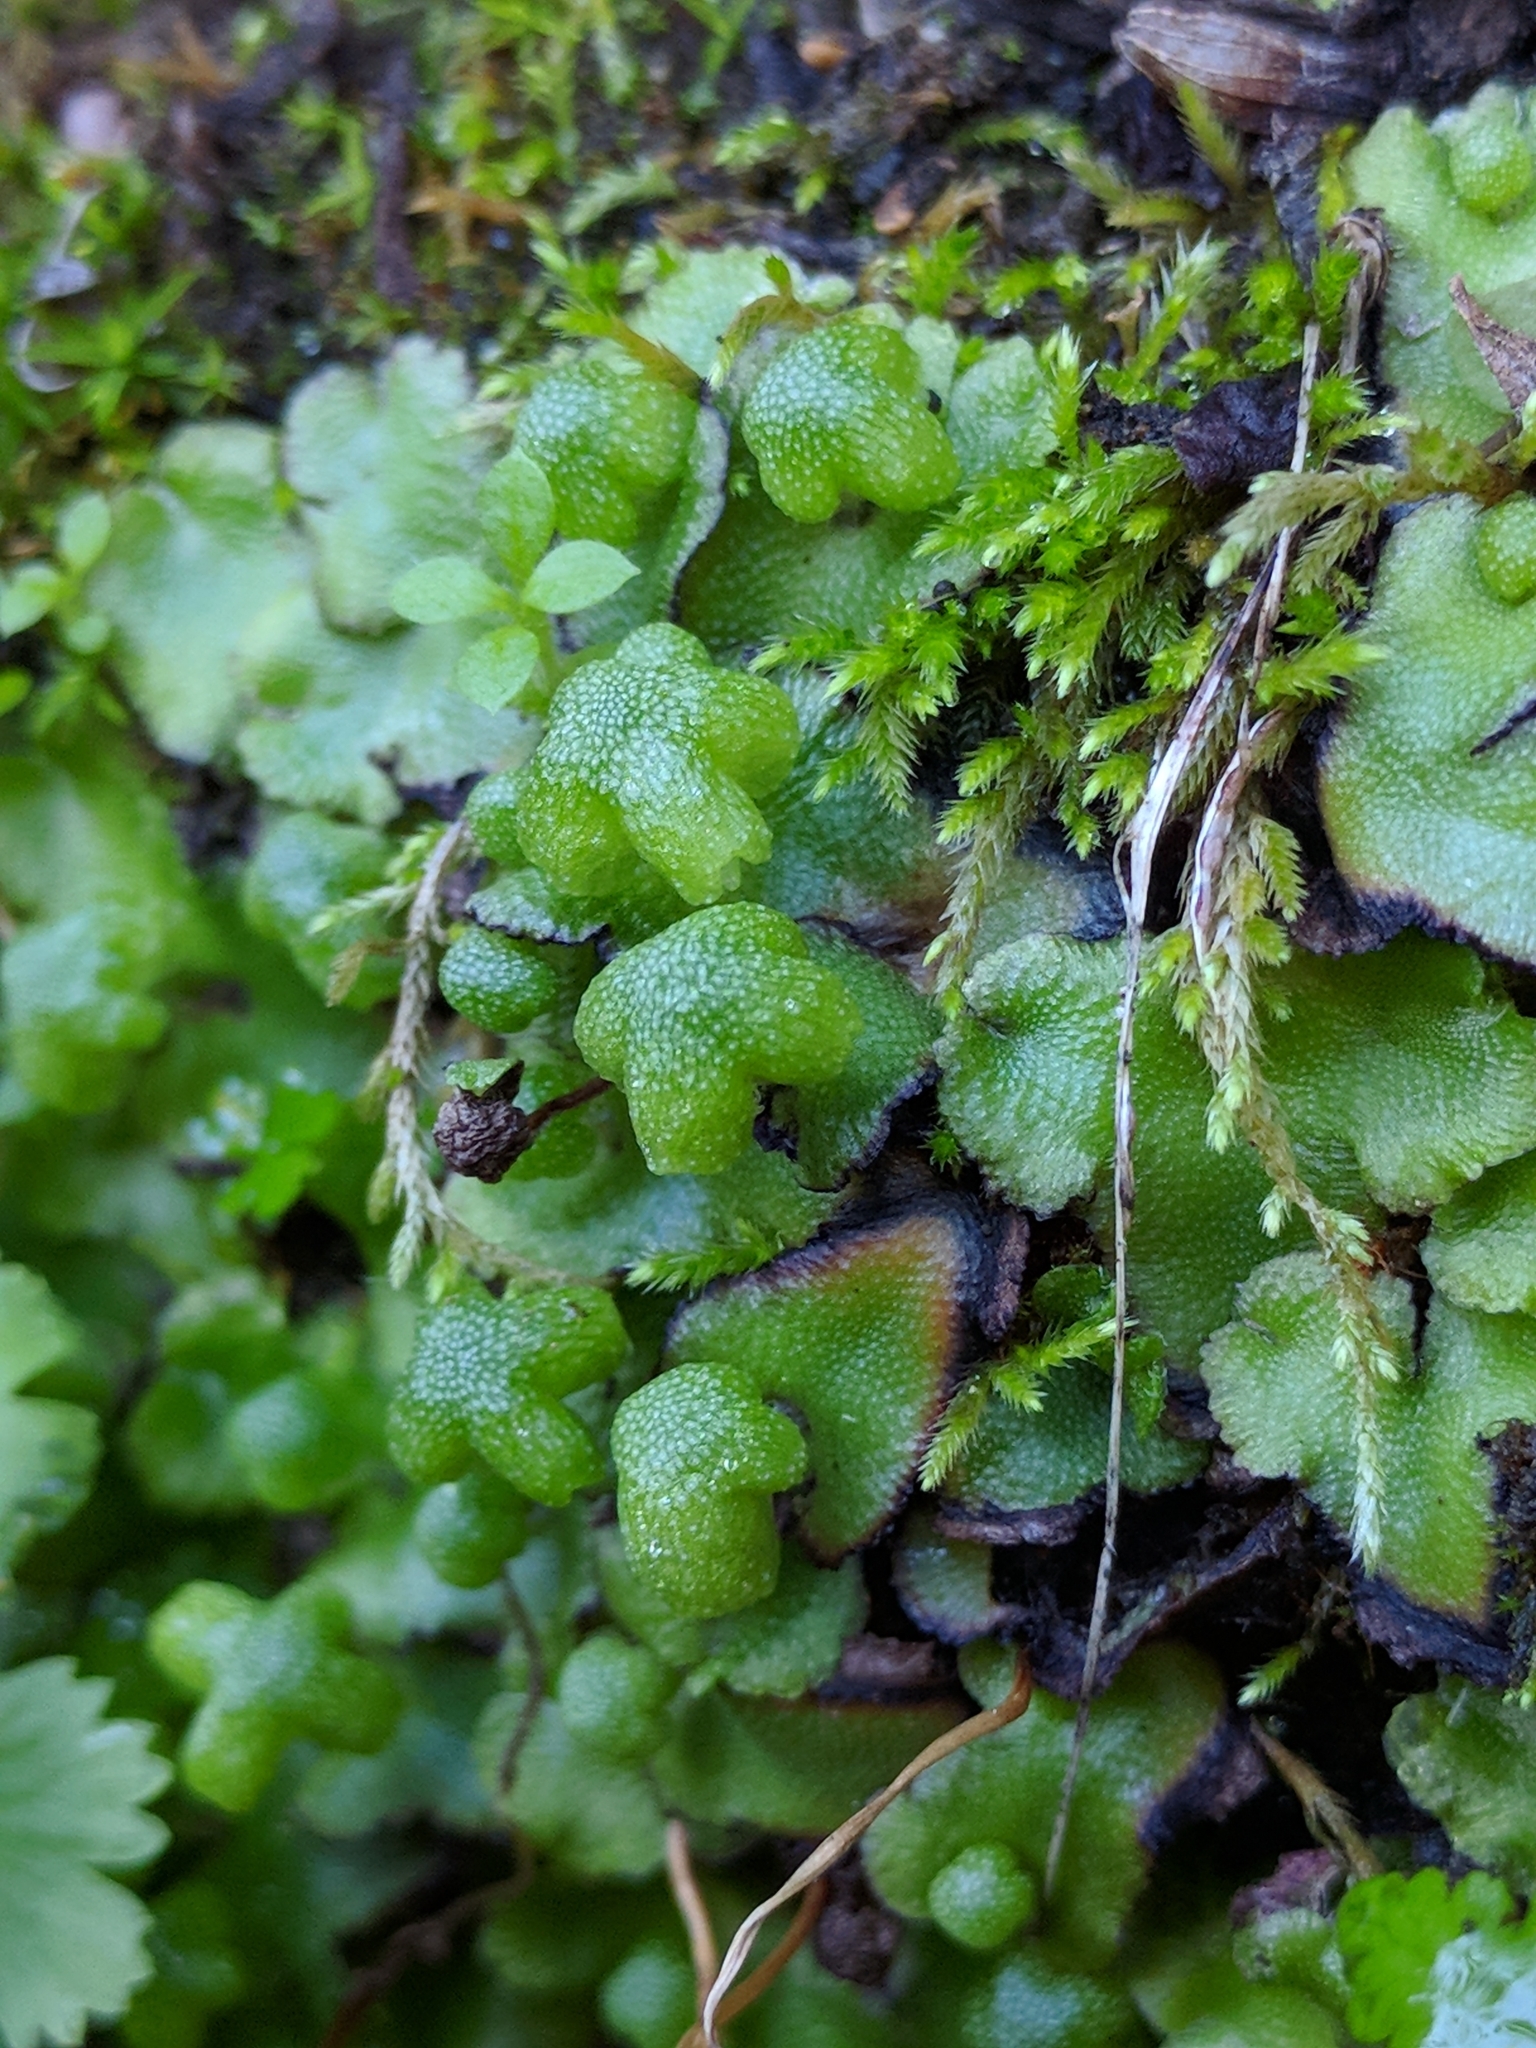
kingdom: Plantae
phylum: Marchantiophyta
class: Marchantiopsida
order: Marchantiales
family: Aytoniaceae
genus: Asterella
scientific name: Asterella californica
